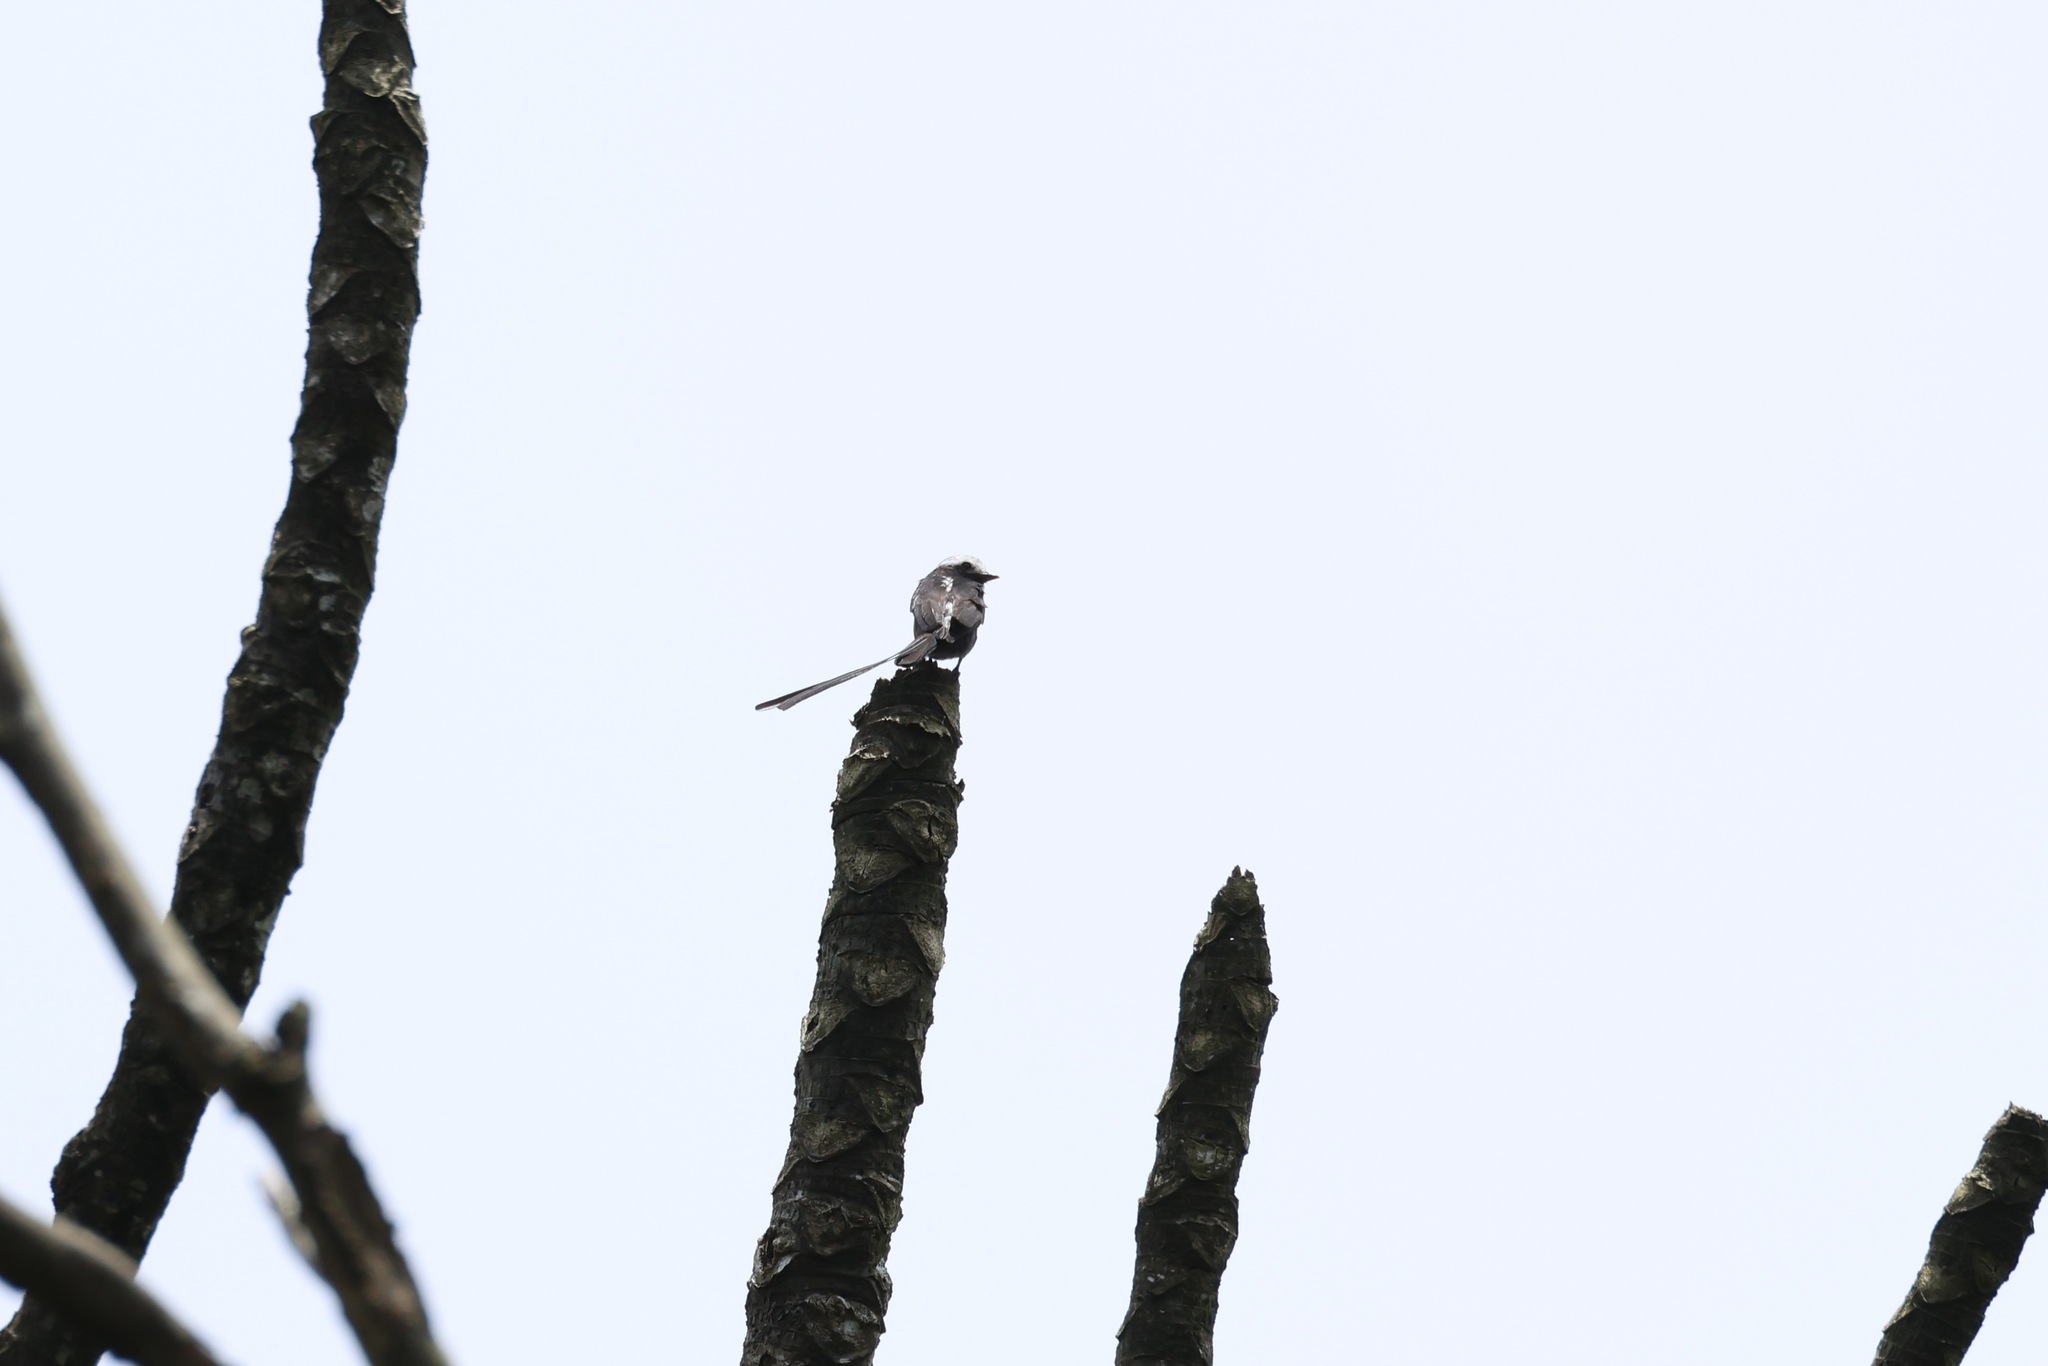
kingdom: Animalia
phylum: Chordata
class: Aves
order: Passeriformes
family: Tyrannidae
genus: Colonia
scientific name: Colonia colonus
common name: Long-tailed tyrant
